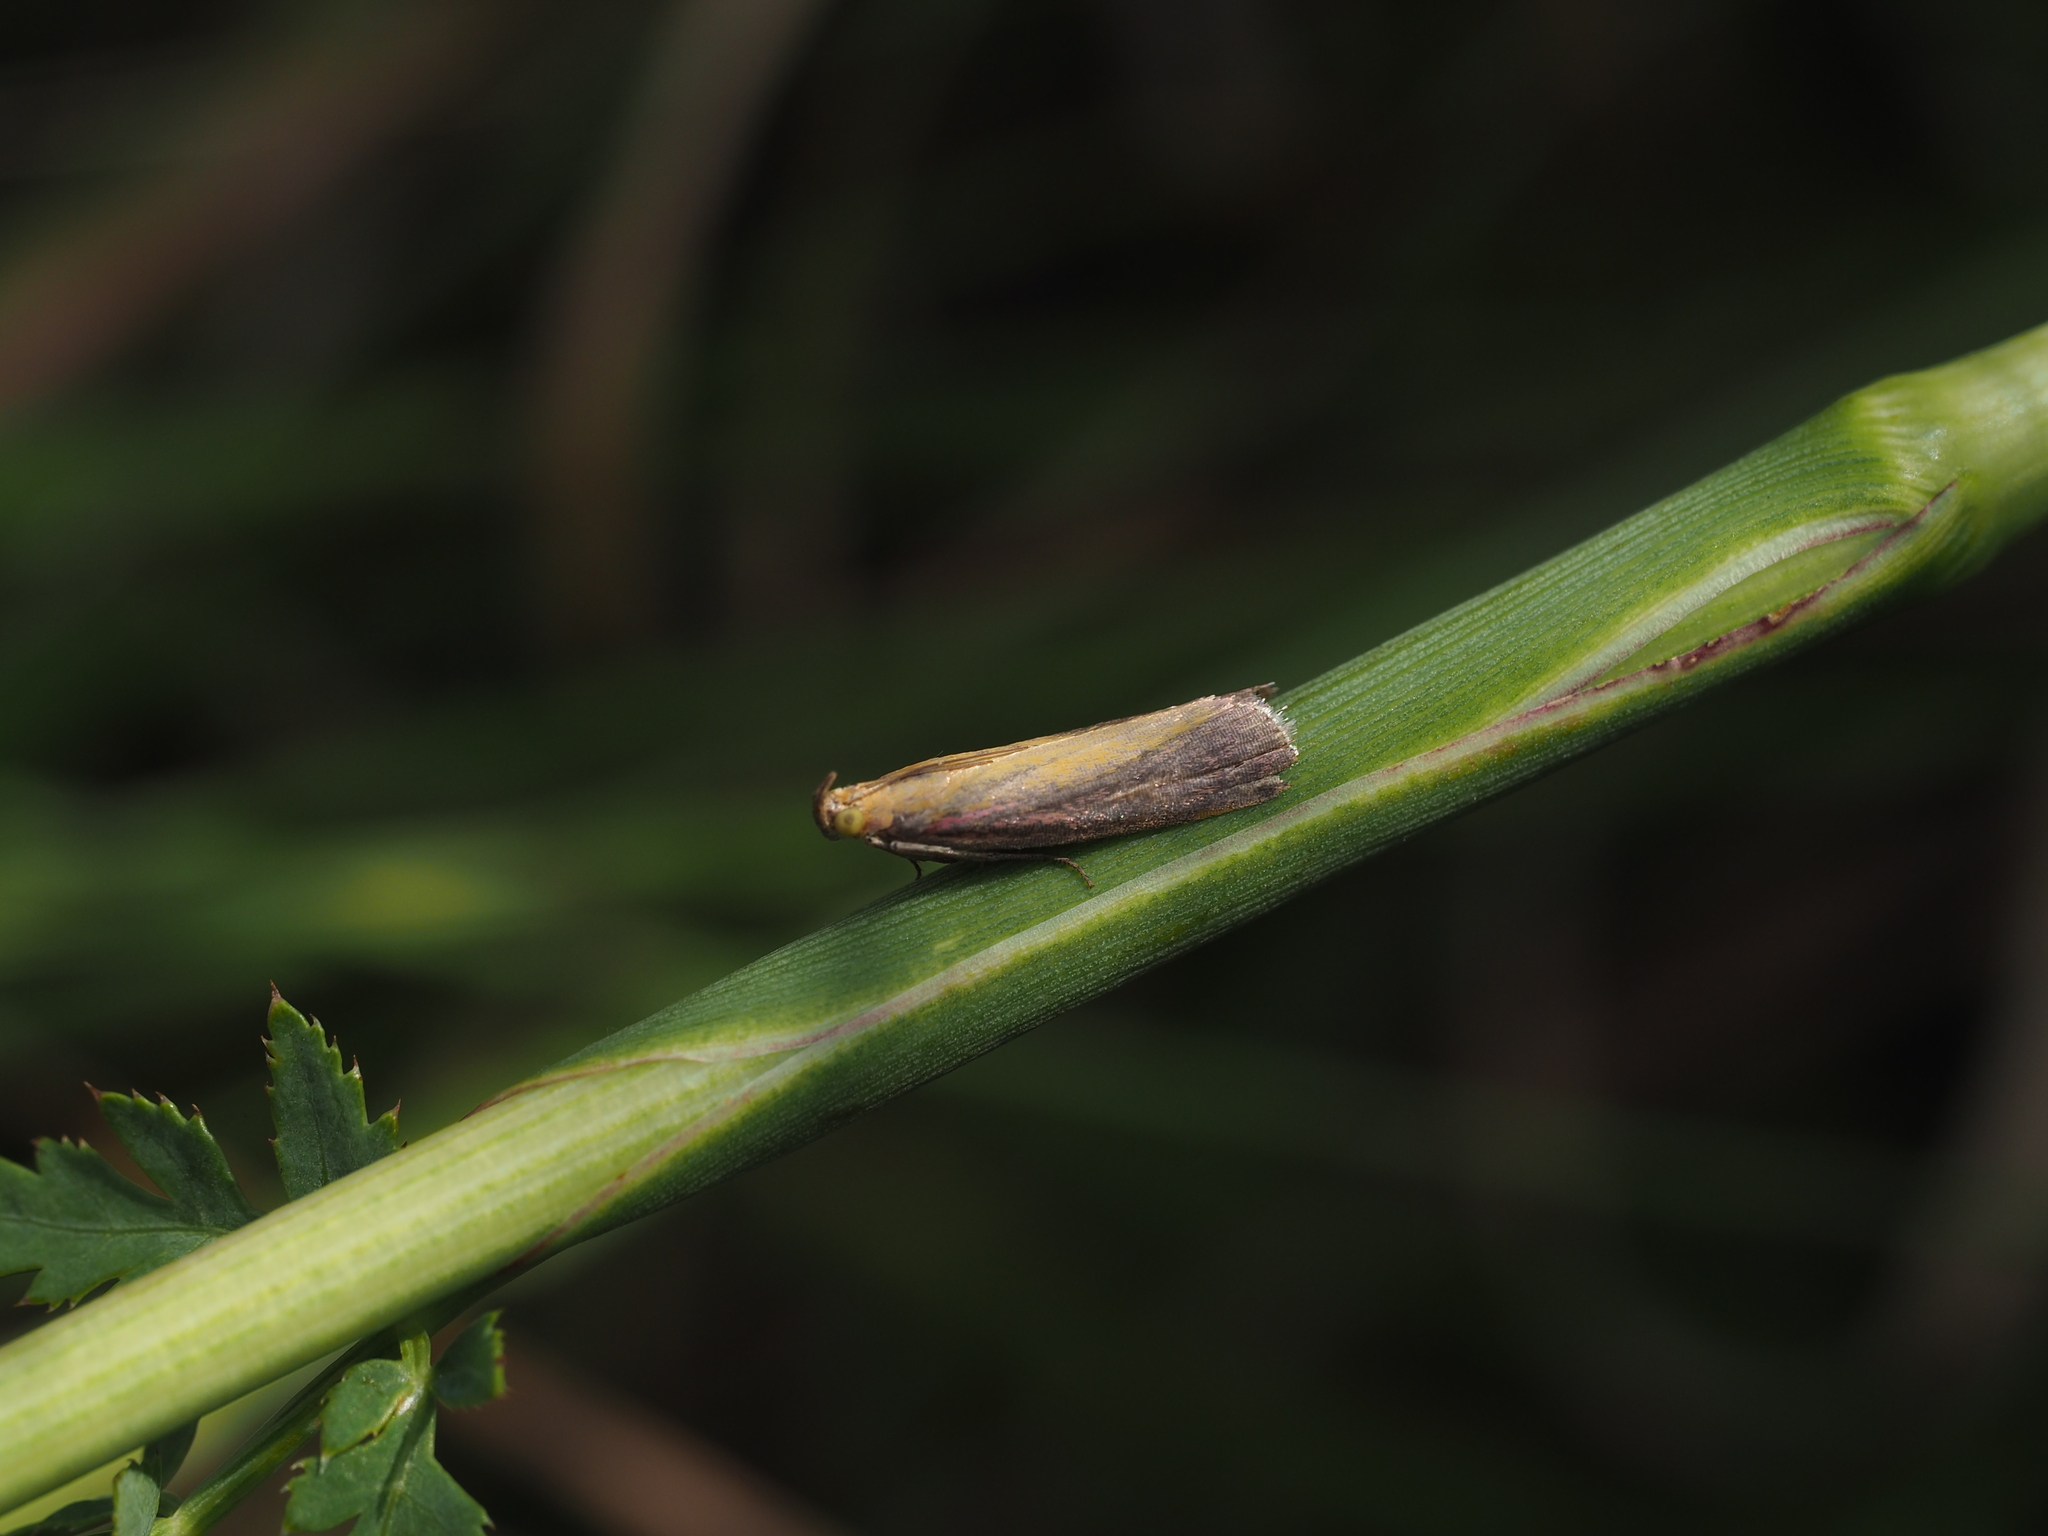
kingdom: Animalia
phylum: Arthropoda
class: Insecta
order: Lepidoptera
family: Pyralidae
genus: Oncocera
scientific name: Oncocera semirubella
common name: Rosy-striped knot-horn
